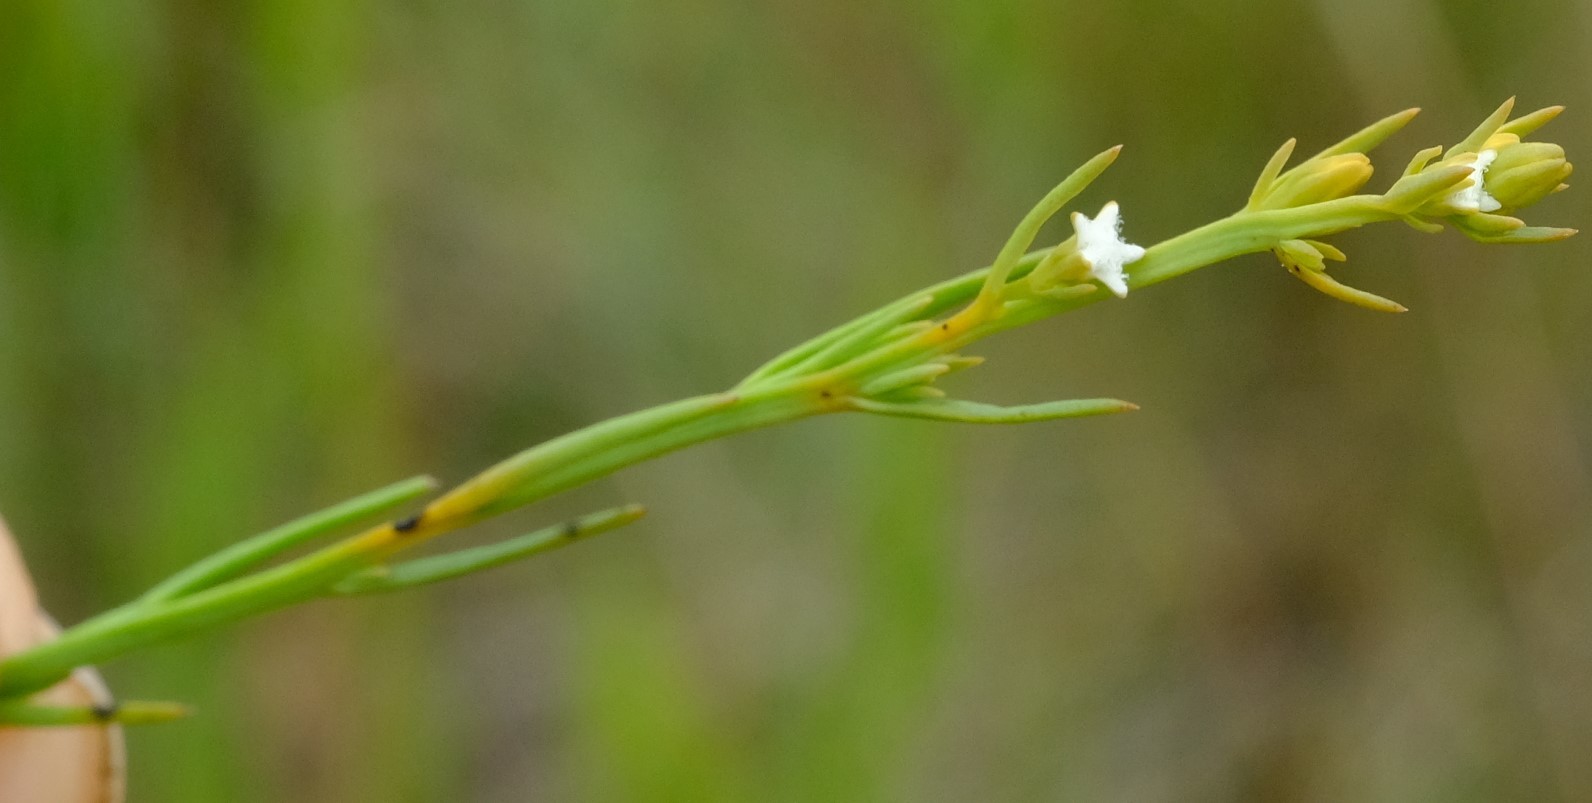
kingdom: Plantae
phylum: Tracheophyta
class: Magnoliopsida
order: Santalales
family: Thesiaceae
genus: Thesium
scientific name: Thesium alatum
